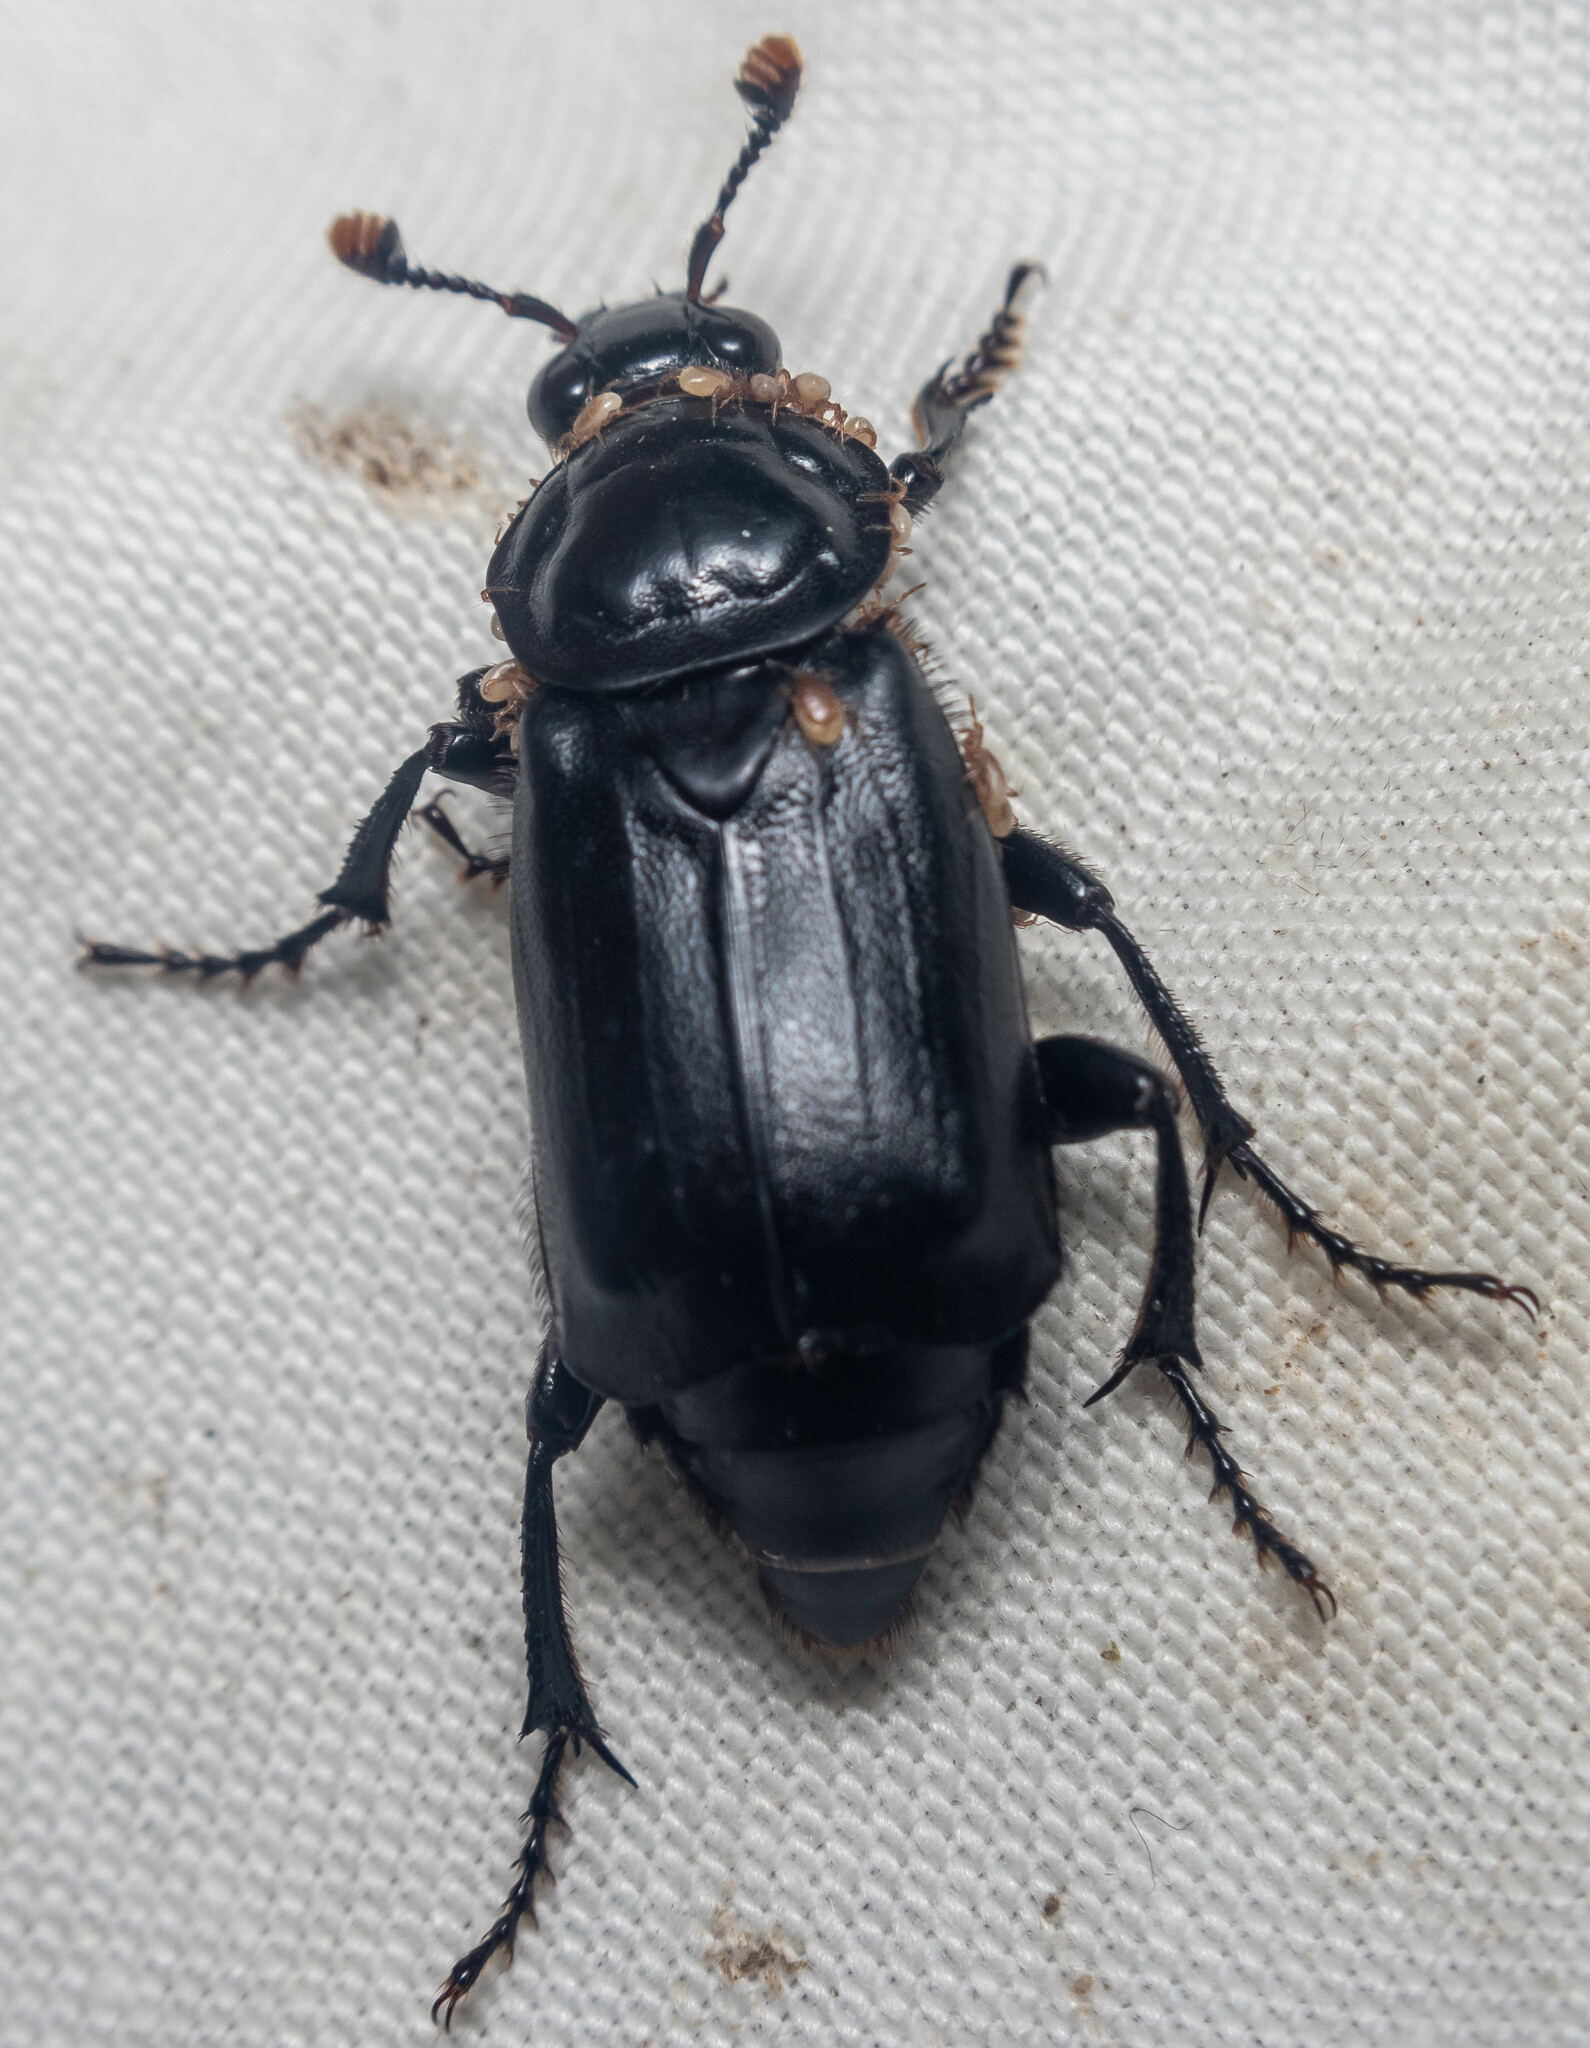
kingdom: Animalia
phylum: Arthropoda
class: Insecta
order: Coleoptera
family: Staphylinidae
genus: Nicrophorus
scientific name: Nicrophorus humator
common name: Black sexton beetle
